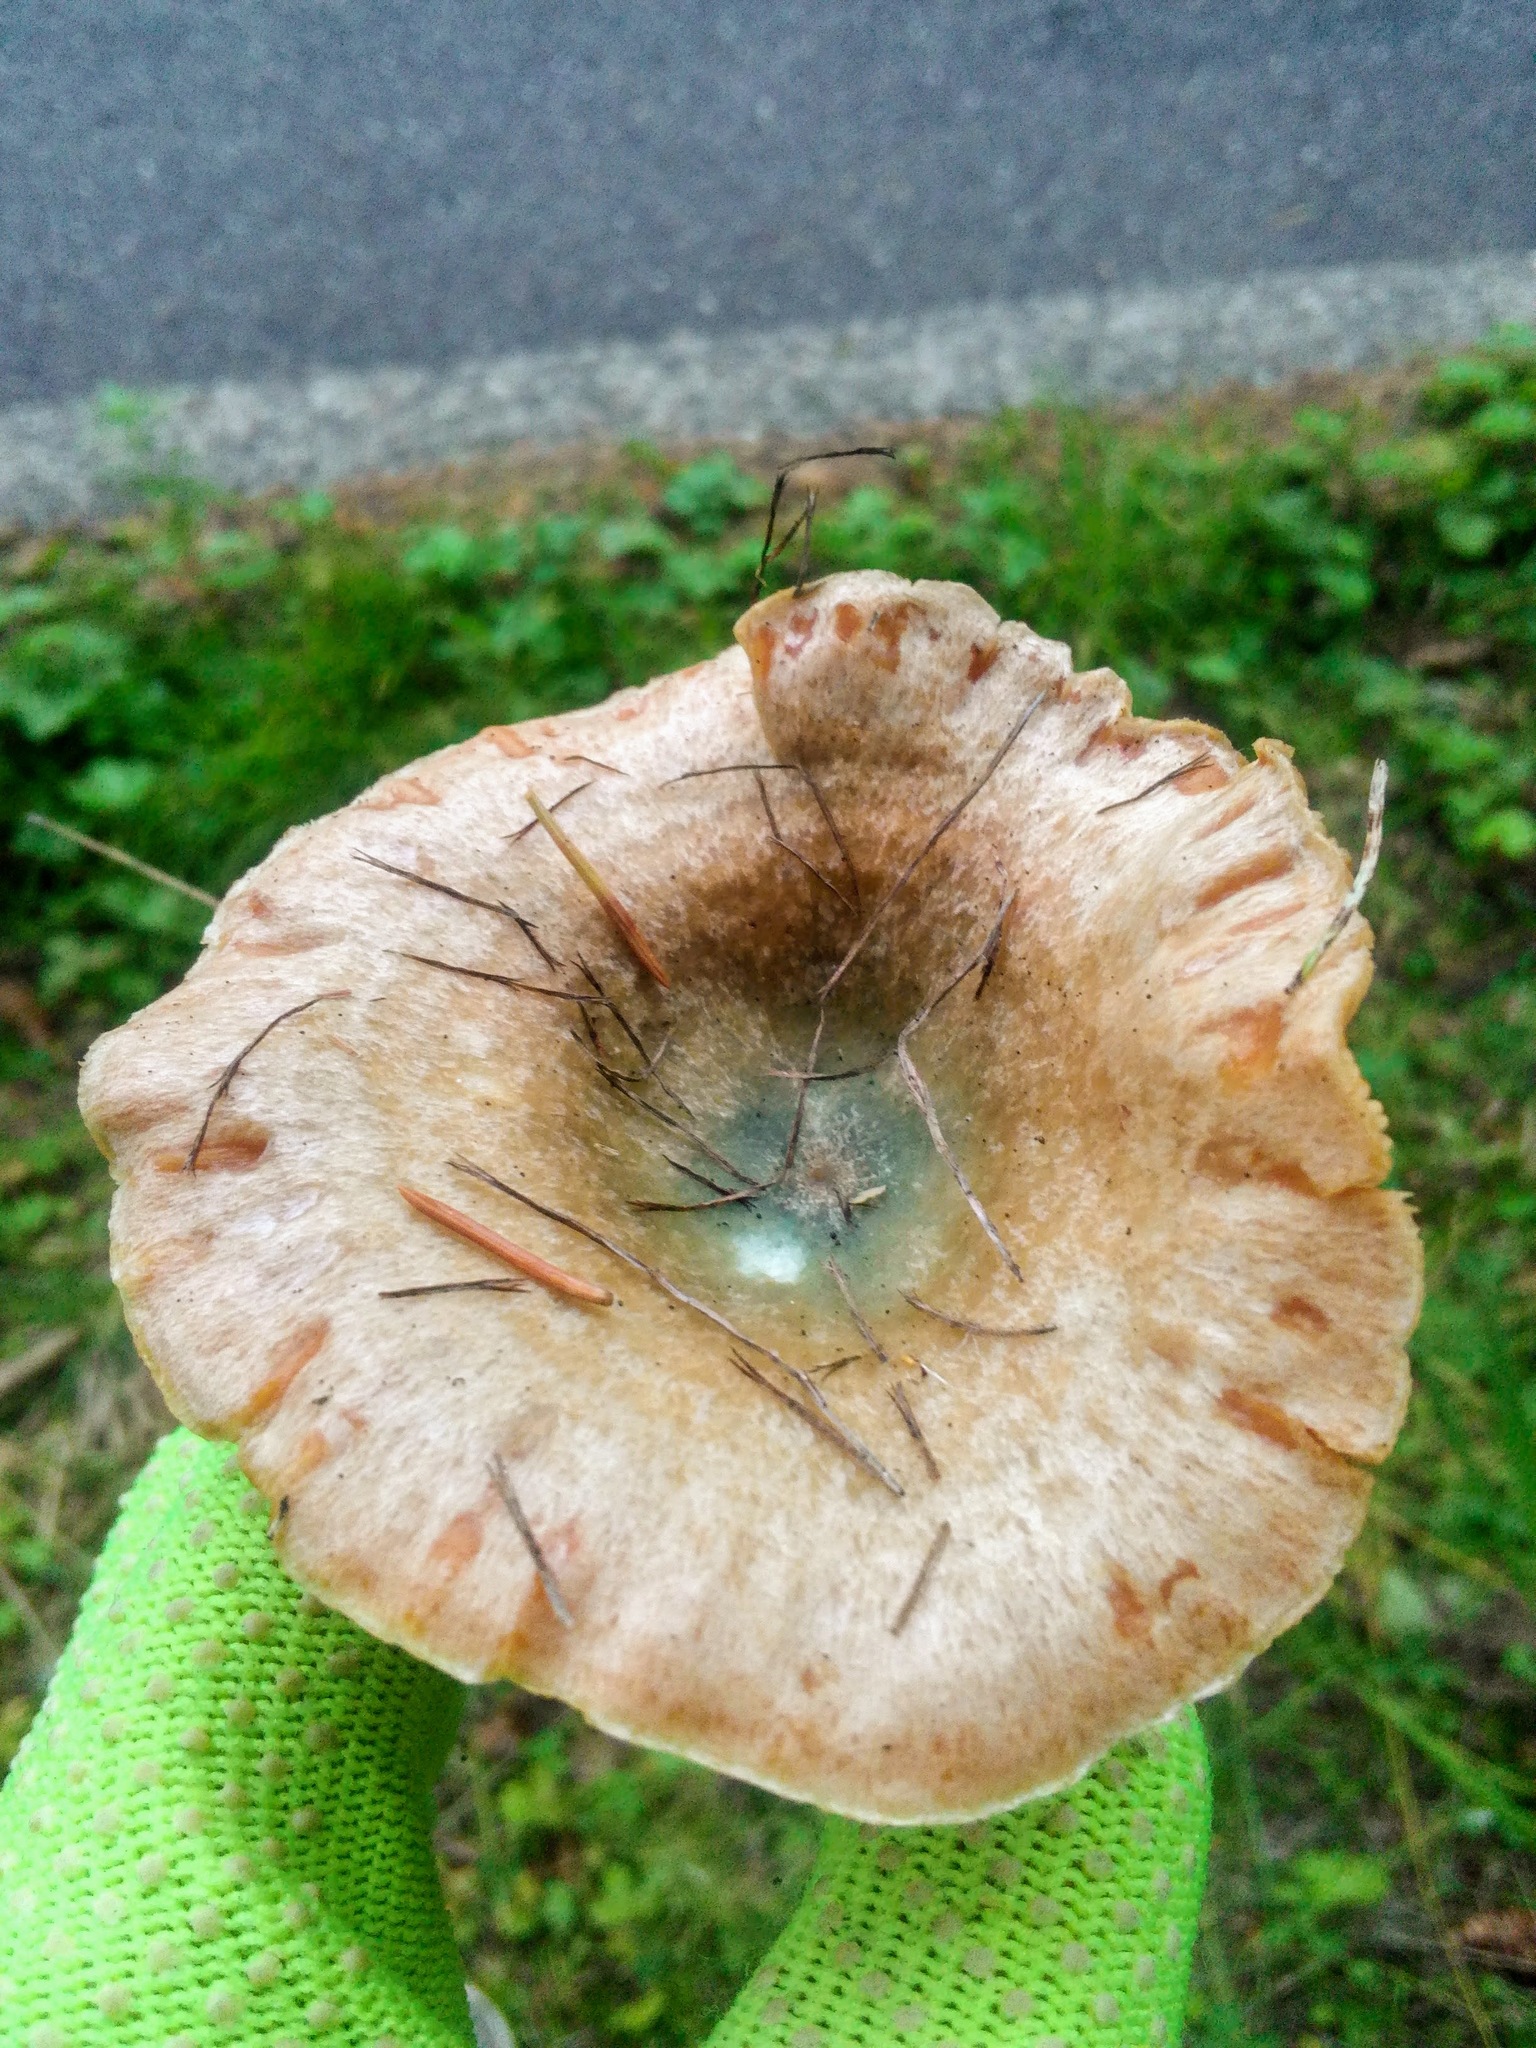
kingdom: Fungi
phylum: Basidiomycota
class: Agaricomycetes
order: Russulales
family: Russulaceae
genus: Lactarius
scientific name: Lactarius deterrimus
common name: False saffron milkcap
